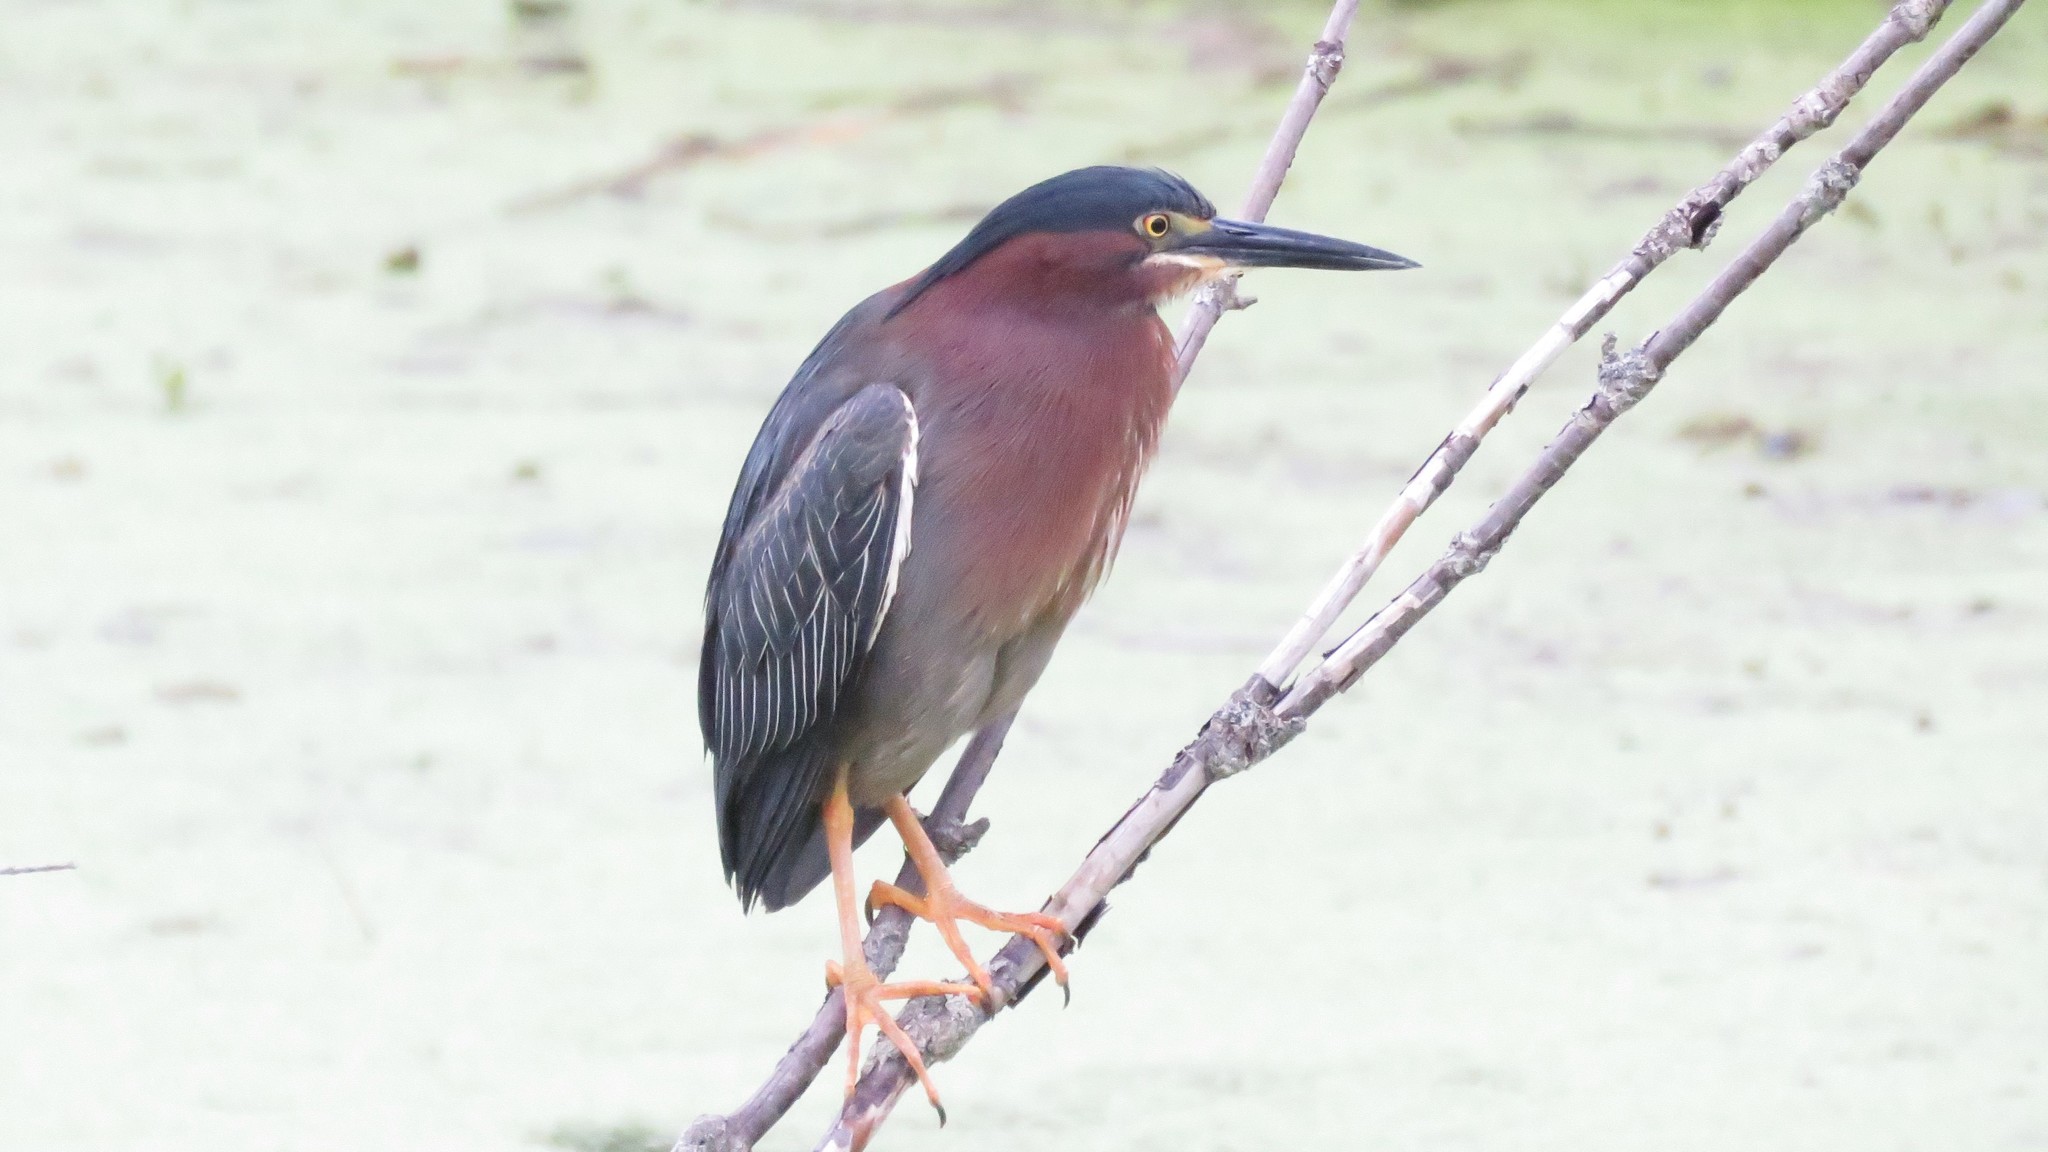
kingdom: Animalia
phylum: Chordata
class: Aves
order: Pelecaniformes
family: Ardeidae
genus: Butorides
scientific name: Butorides virescens
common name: Green heron
